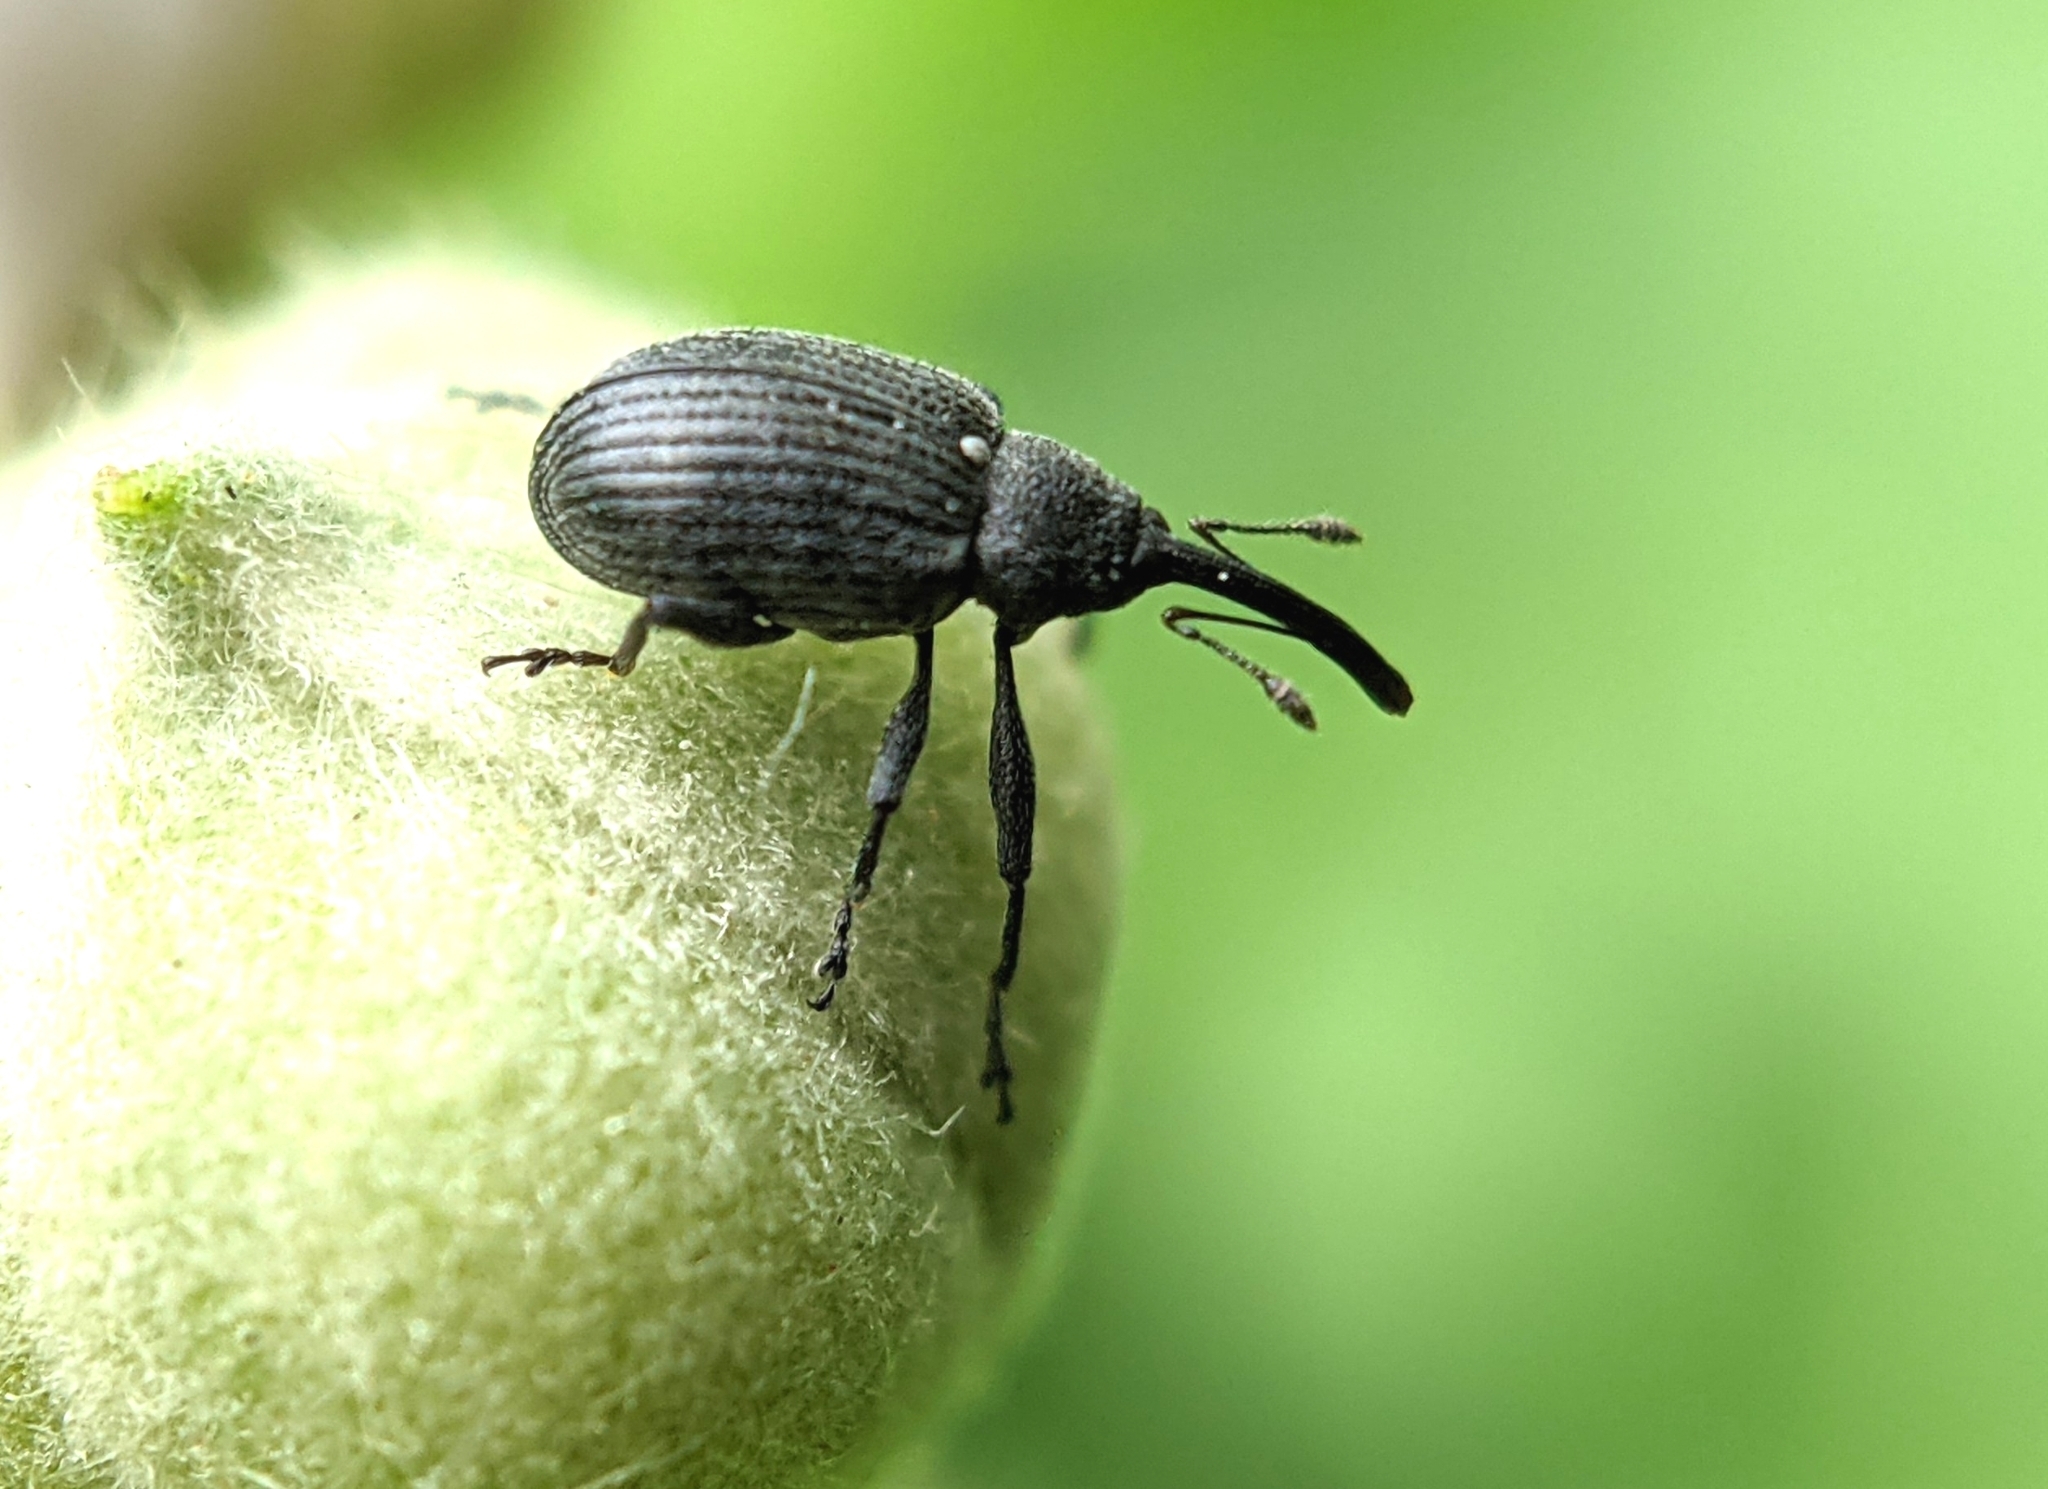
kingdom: Animalia
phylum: Arthropoda
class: Insecta
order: Coleoptera
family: Curculionidae
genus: Anthonomus
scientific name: Anthonomus rubi
